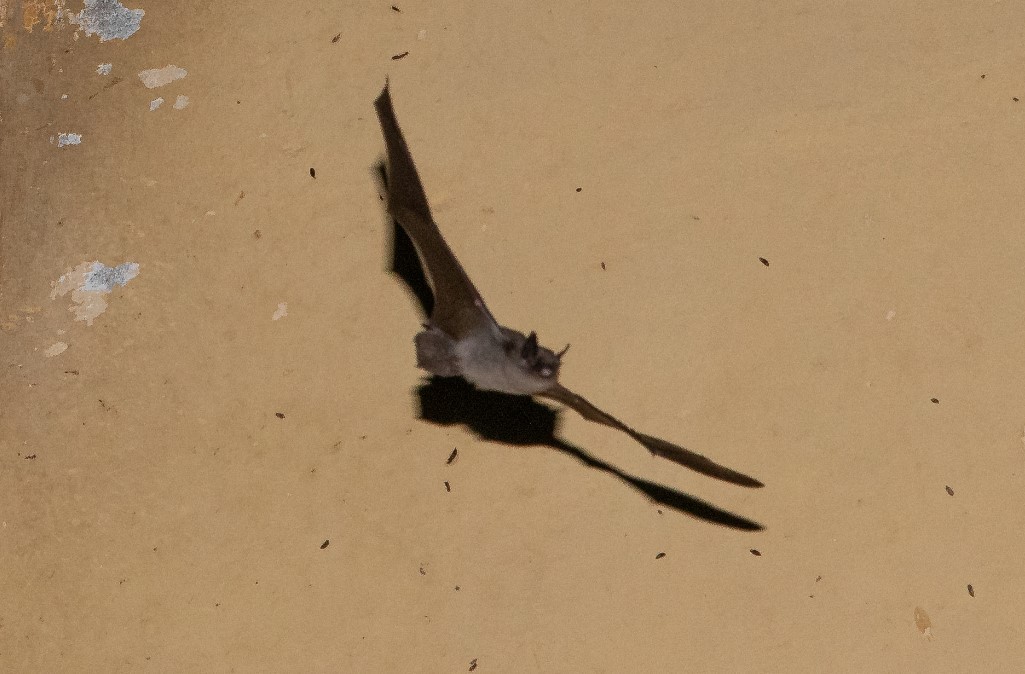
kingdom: Animalia
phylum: Chordata
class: Mammalia
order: Chiroptera
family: Vespertilionidae
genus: Myotis
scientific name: Myotis chiloensis
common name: Chilean myotis
